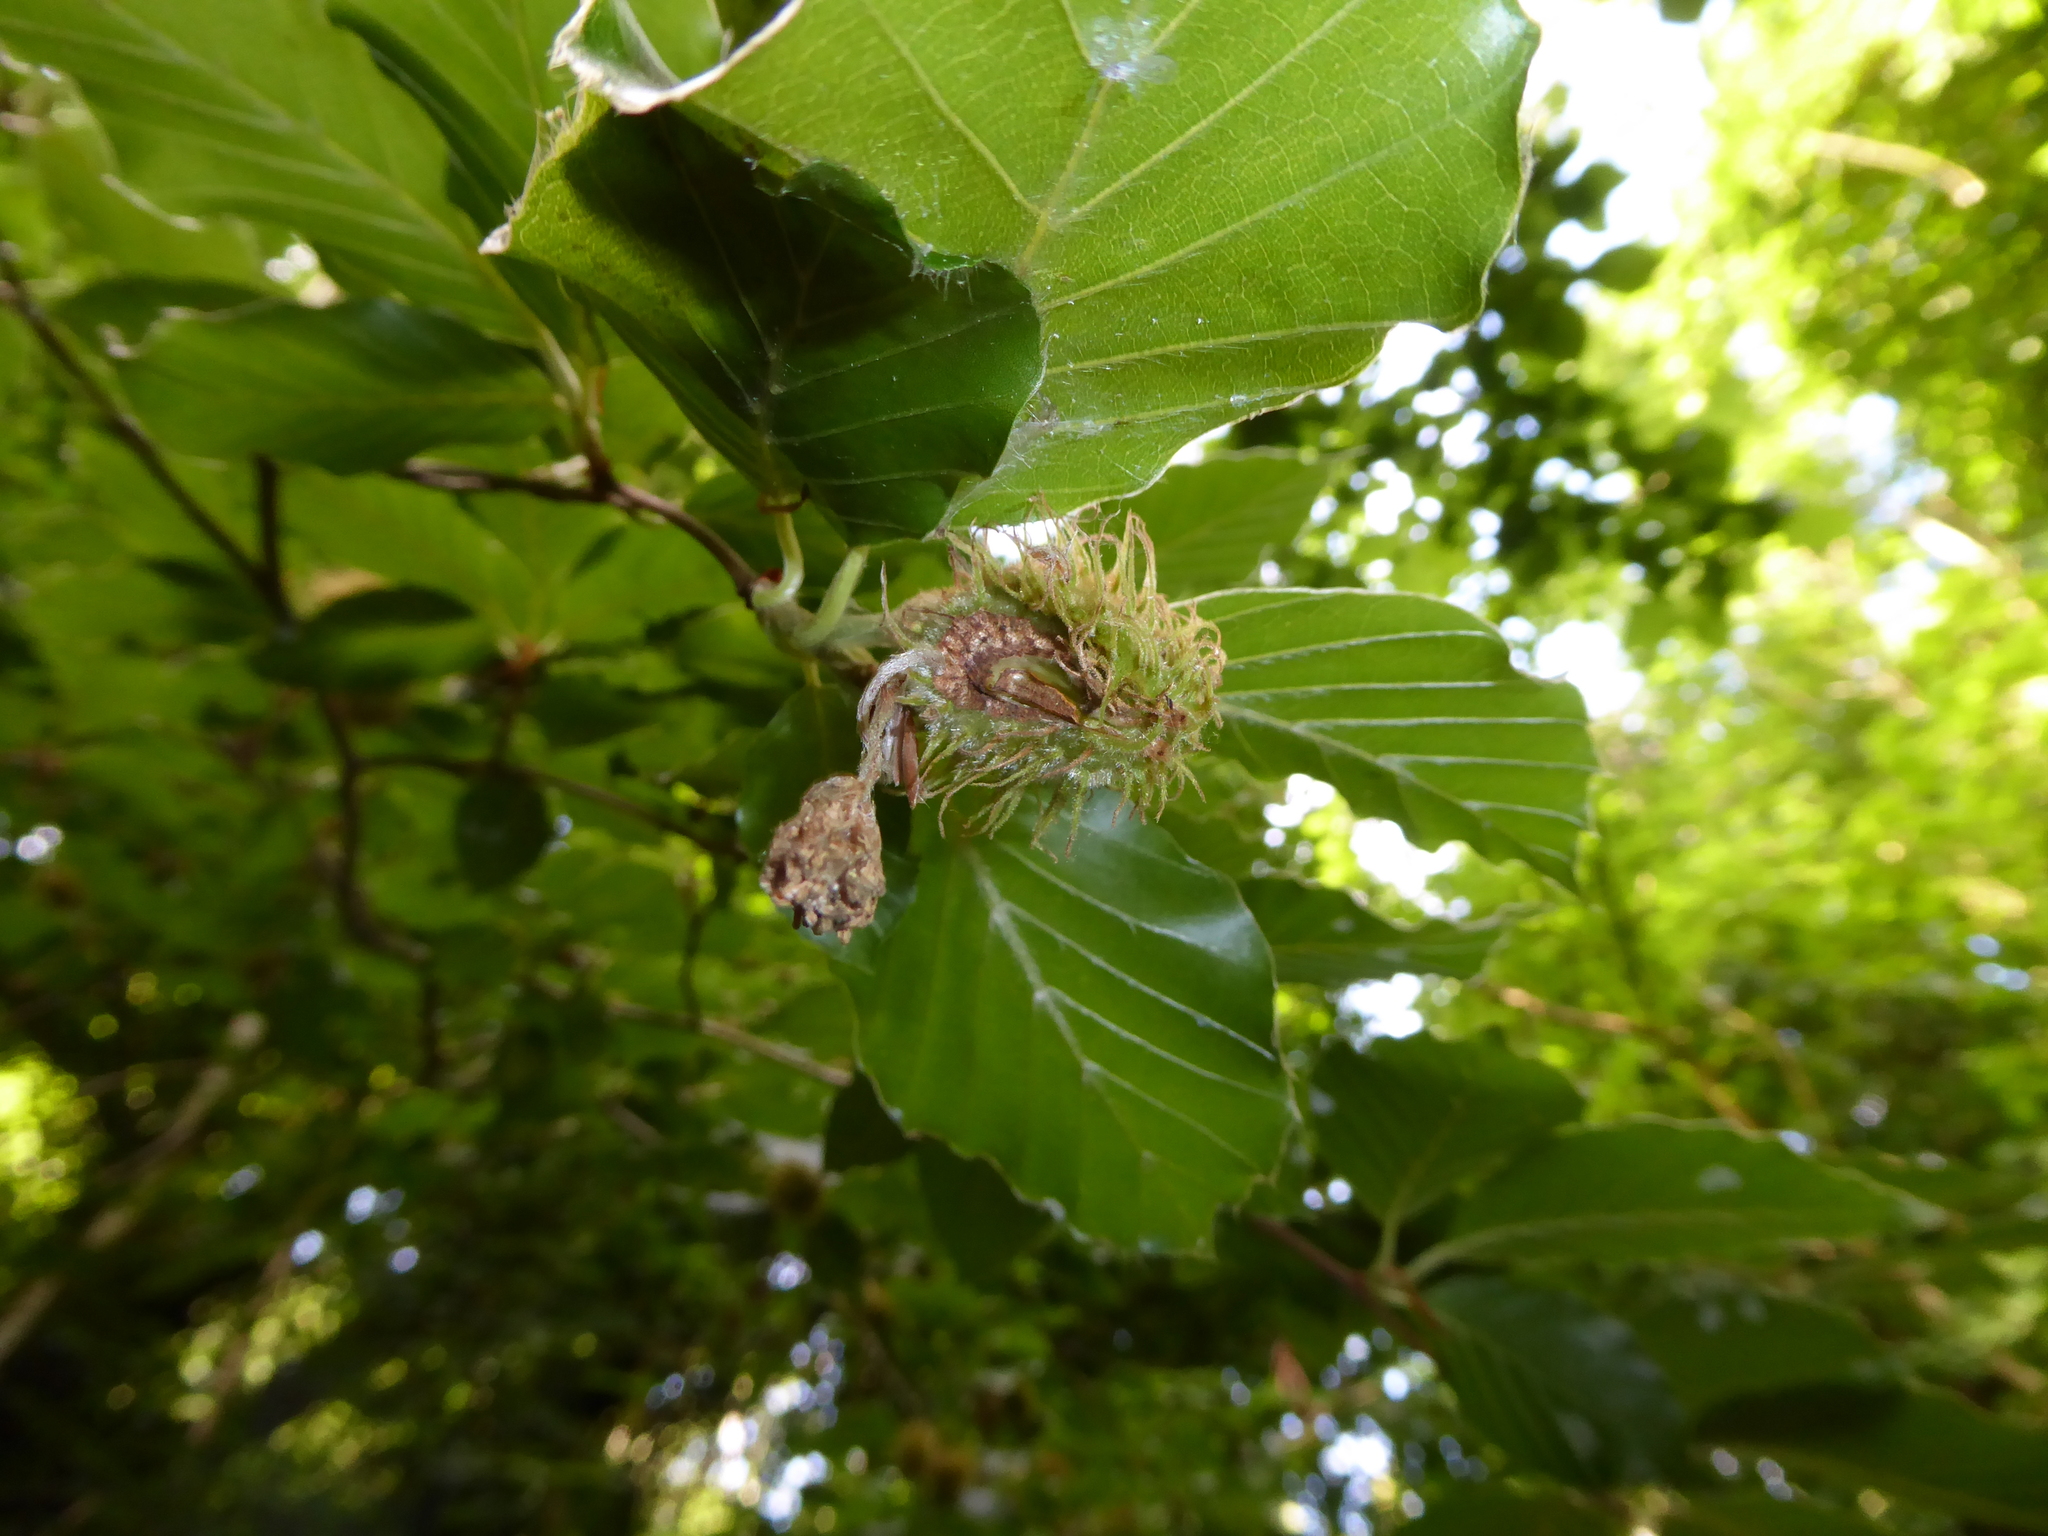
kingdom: Plantae
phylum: Tracheophyta
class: Magnoliopsida
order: Fagales
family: Fagaceae
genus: Fagus
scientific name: Fagus sylvatica
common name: Beech
